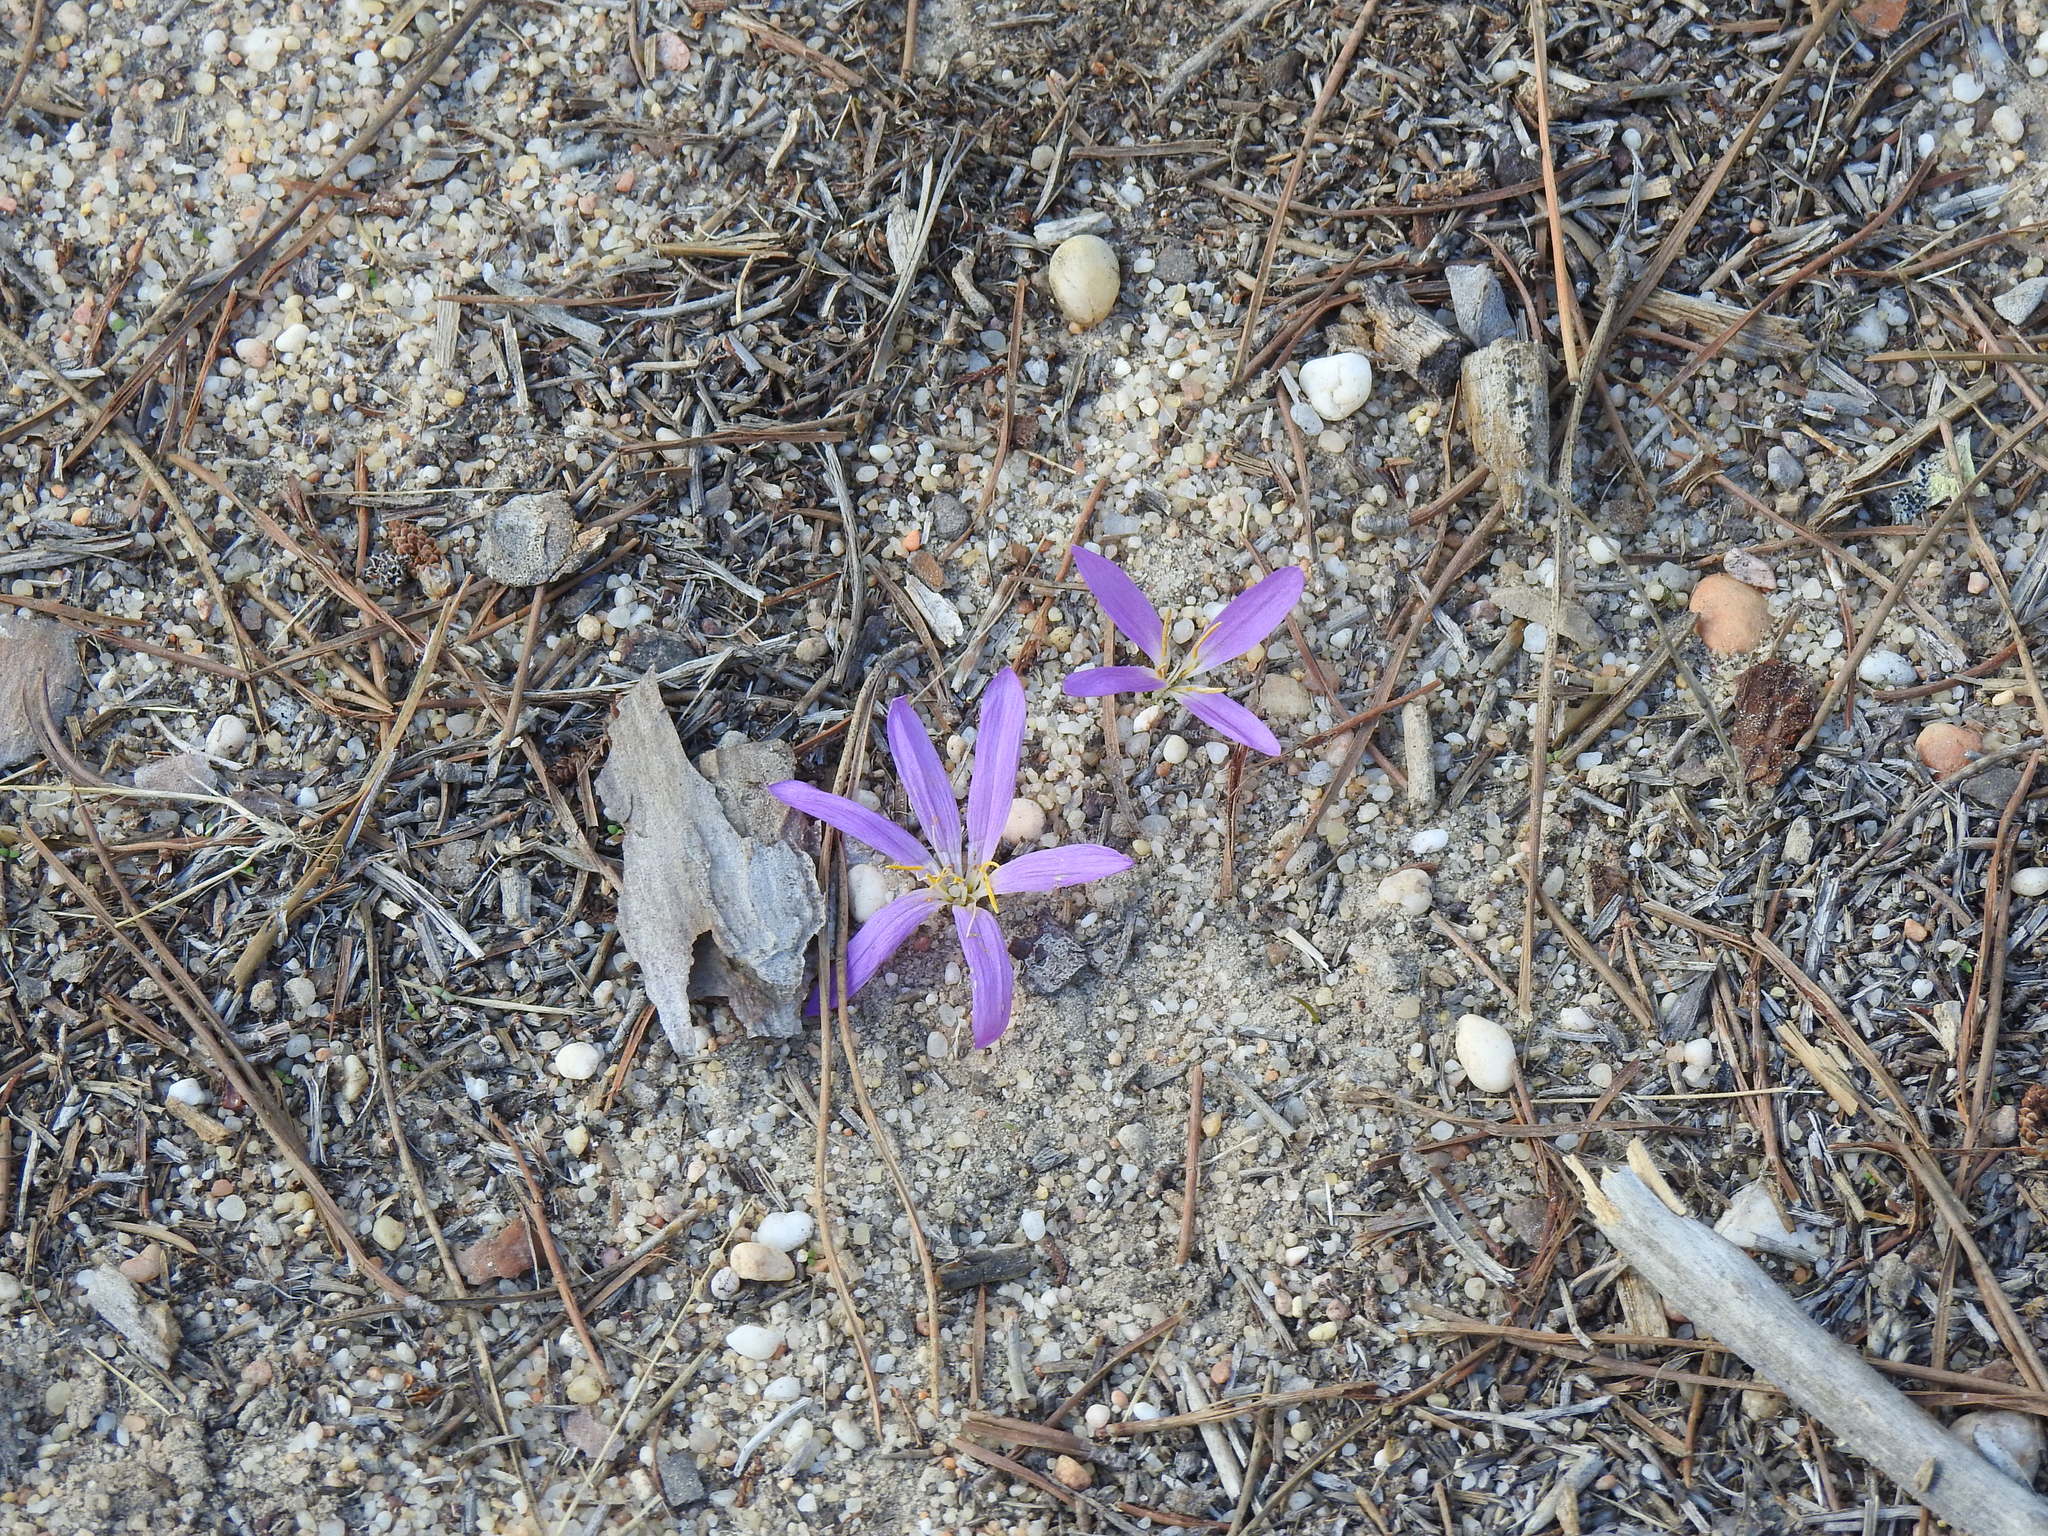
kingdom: Plantae
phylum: Tracheophyta
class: Liliopsida
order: Liliales
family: Colchicaceae
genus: Colchicum
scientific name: Colchicum filifolium
